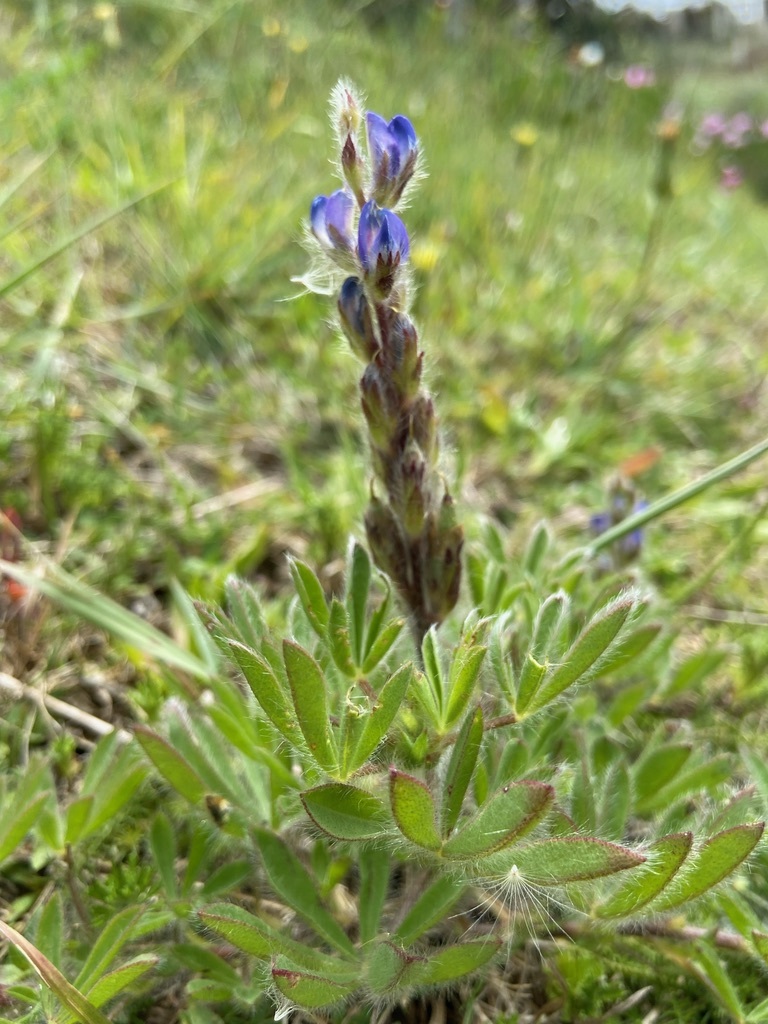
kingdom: Plantae
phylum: Tracheophyta
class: Magnoliopsida
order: Fabales
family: Fabaceae
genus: Lupinus
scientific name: Lupinus bracteolaris
